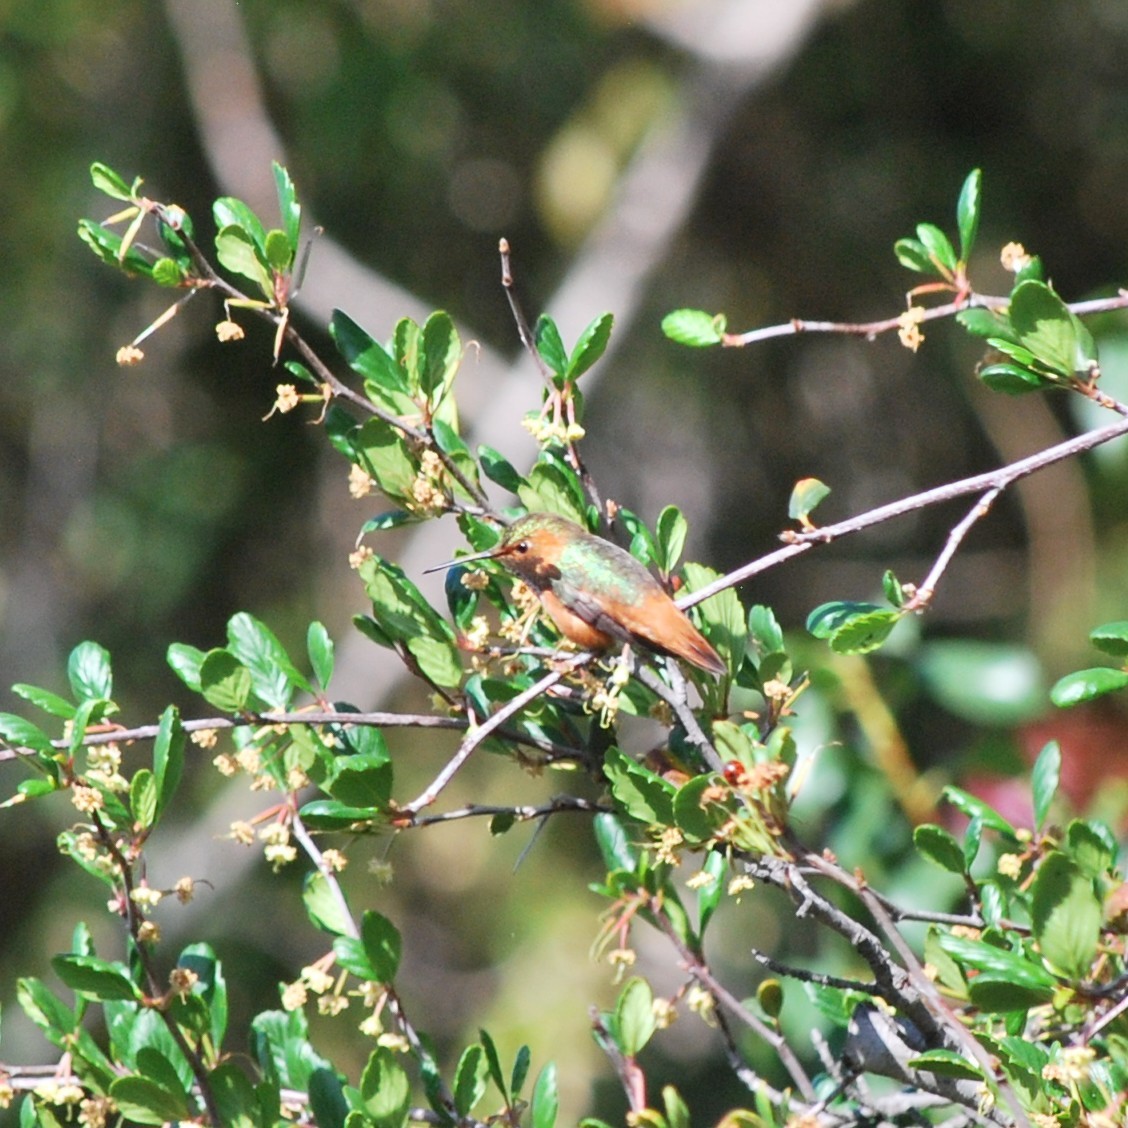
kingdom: Animalia
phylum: Chordata
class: Aves
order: Apodiformes
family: Trochilidae
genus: Selasphorus
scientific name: Selasphorus sasin
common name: Allen's hummingbird
